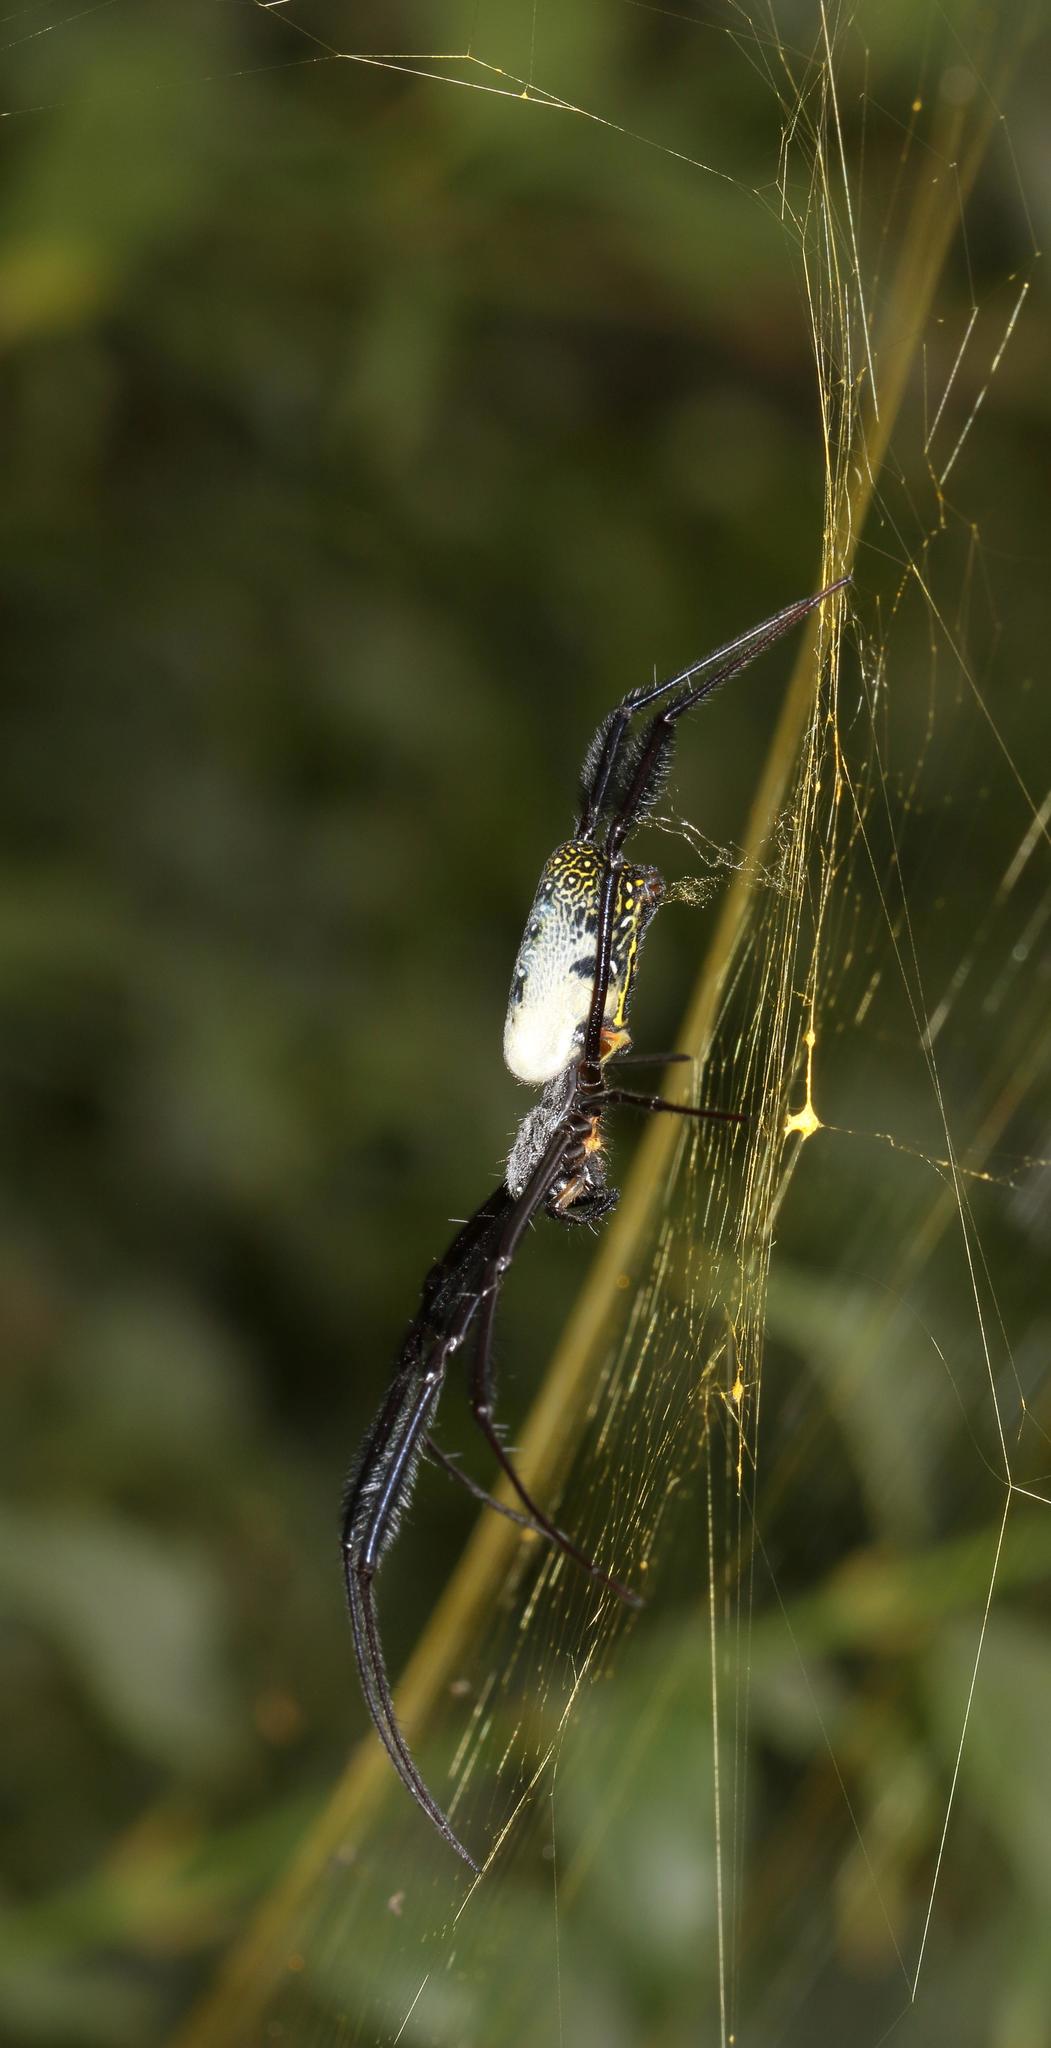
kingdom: Animalia
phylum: Arthropoda
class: Arachnida
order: Araneae
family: Araneidae
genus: Trichonephila
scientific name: Trichonephila fenestrata
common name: Hairy golden orb weaver
